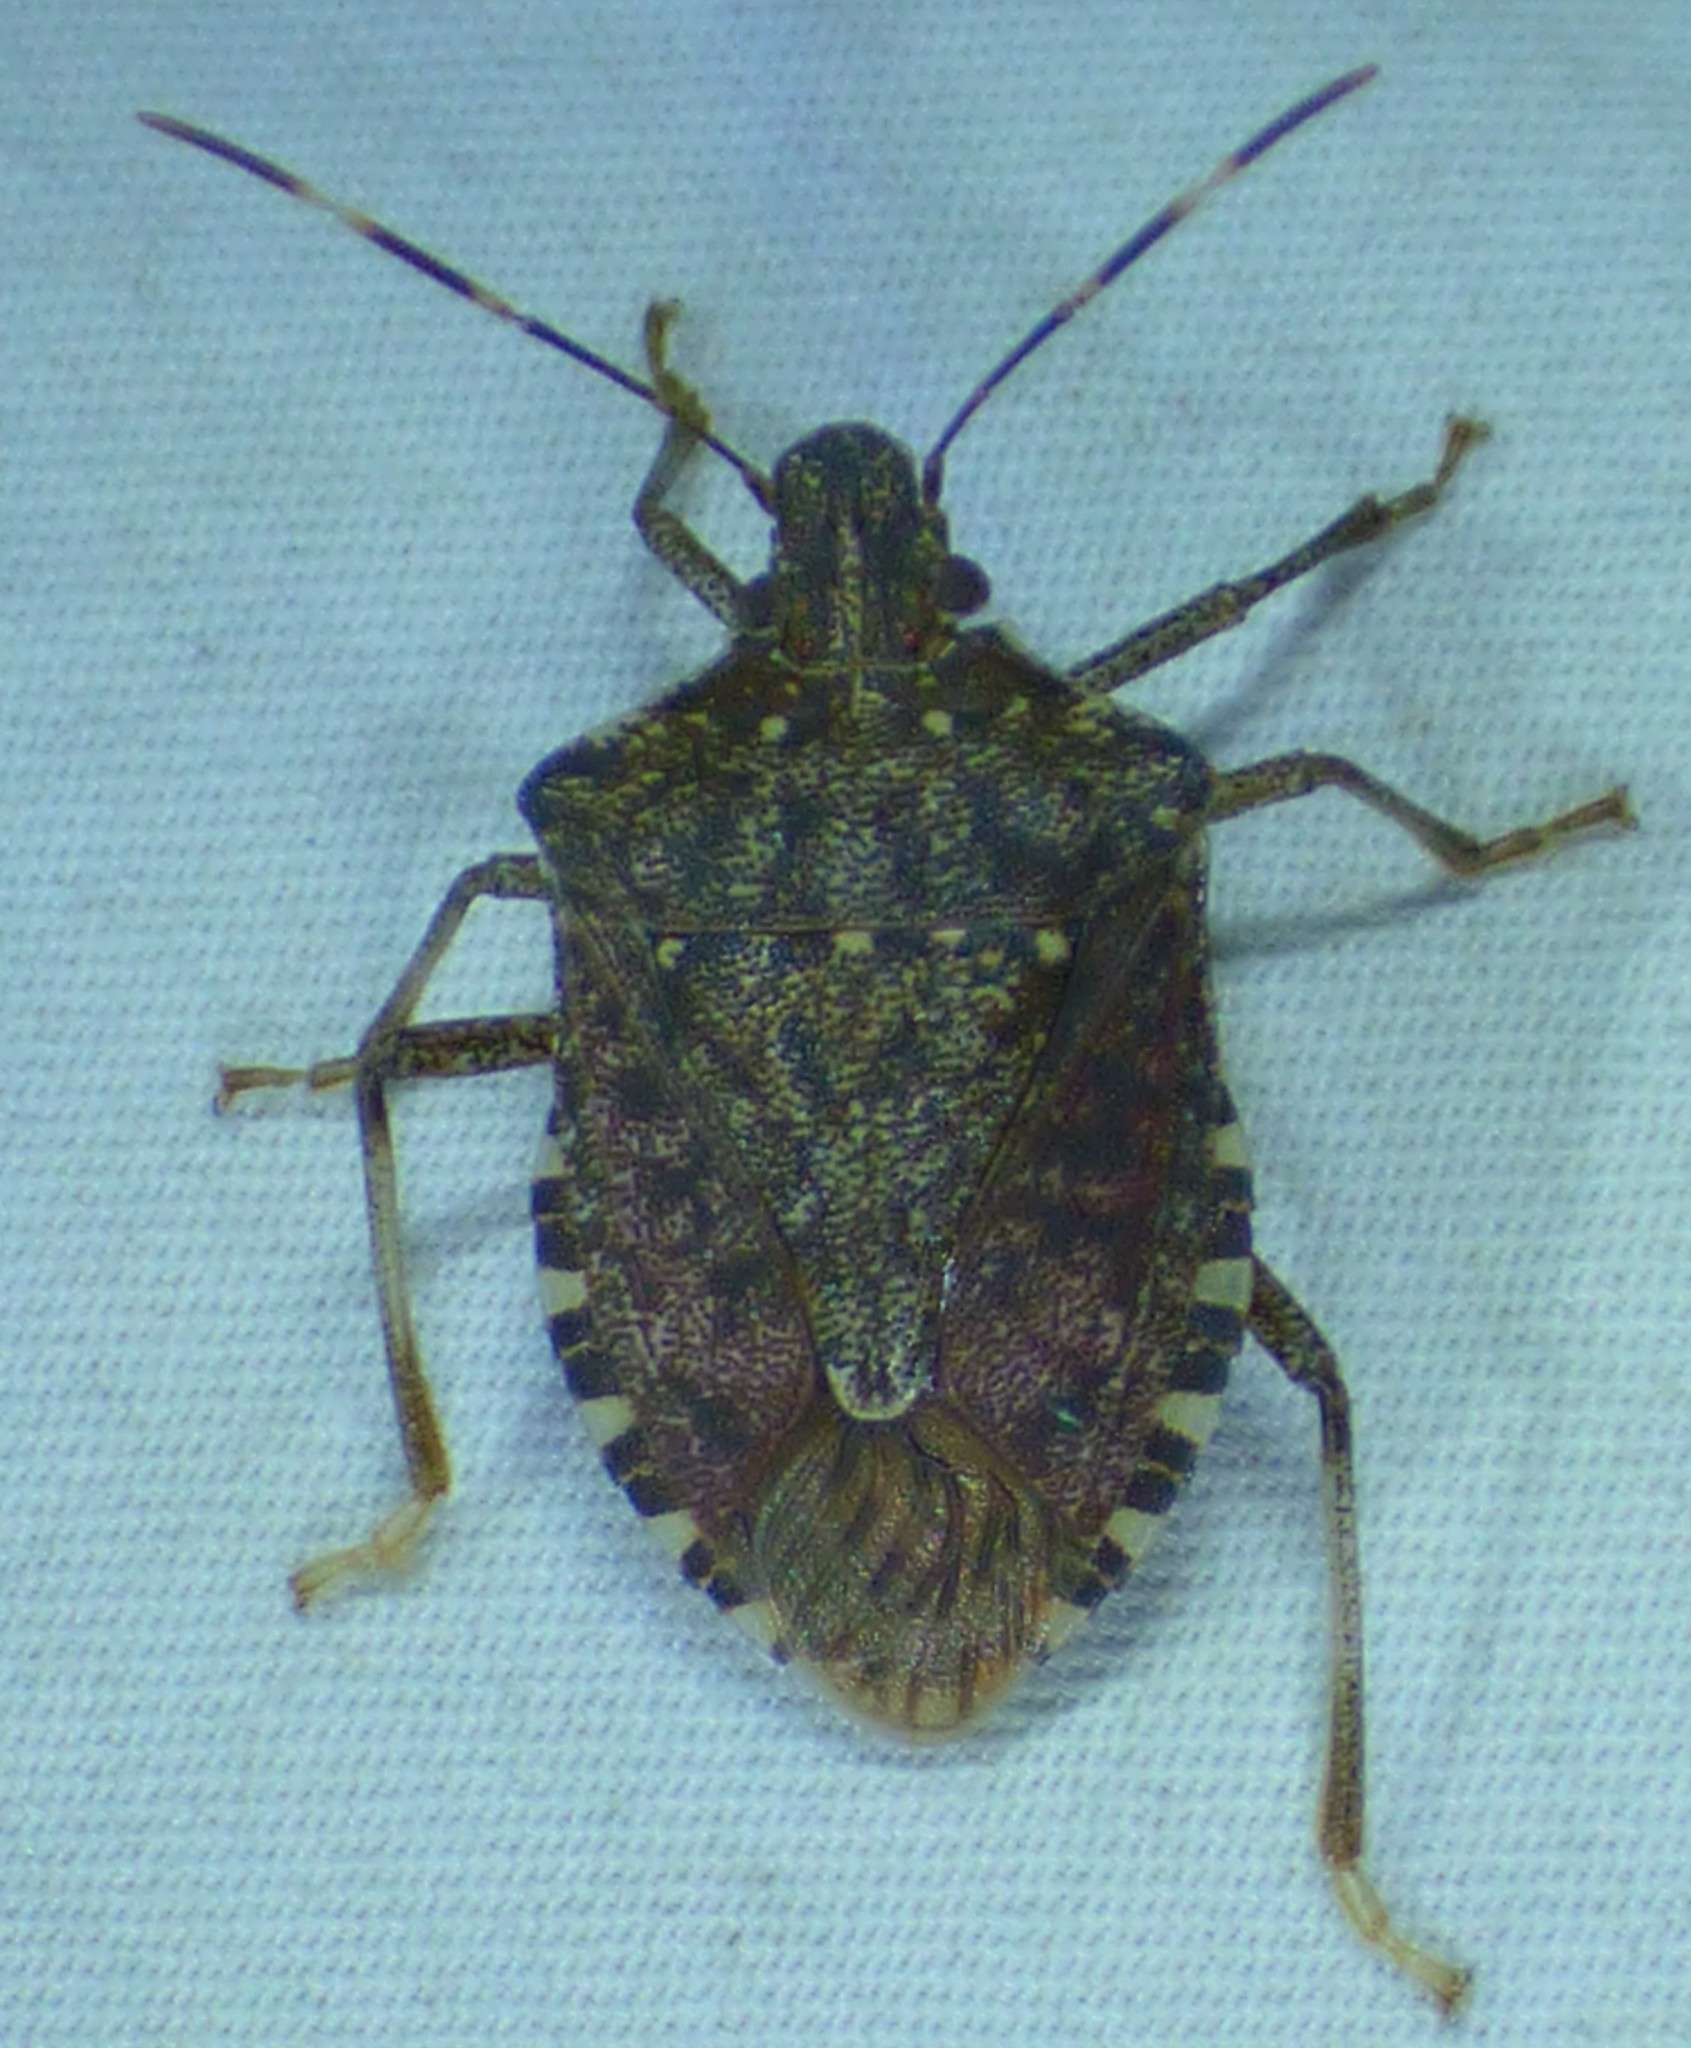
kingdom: Animalia
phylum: Arthropoda
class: Insecta
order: Hemiptera
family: Pentatomidae
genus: Halyomorpha
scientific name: Halyomorpha halys
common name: Brown marmorated stink bug
